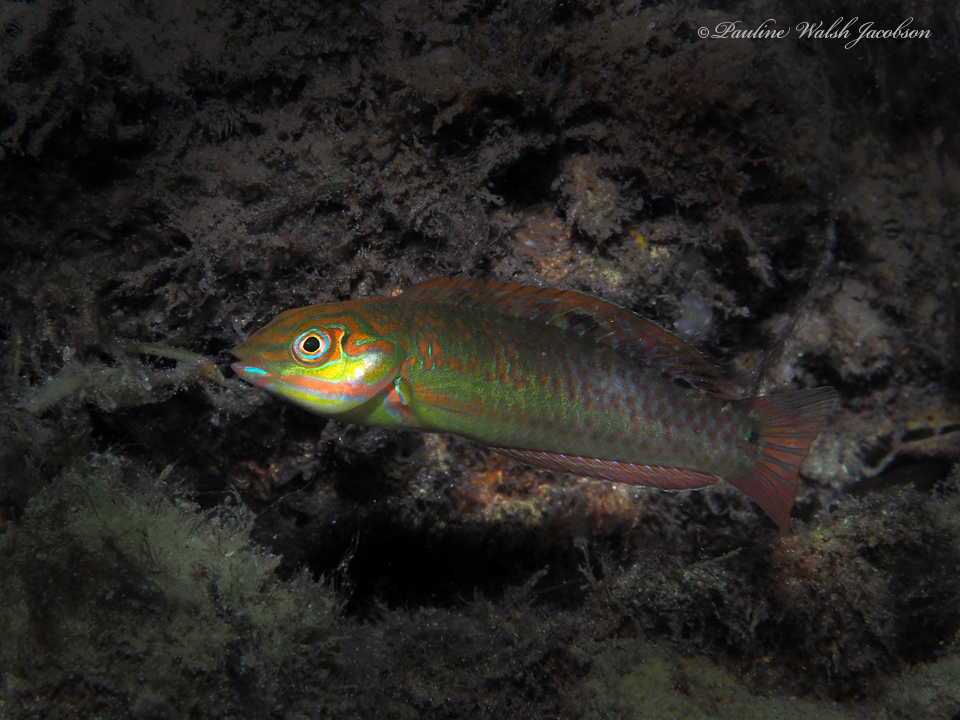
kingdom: Animalia
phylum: Chordata
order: Perciformes
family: Labridae
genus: Halichoeres
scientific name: Halichoeres poeyi
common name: Blackear wrasse
